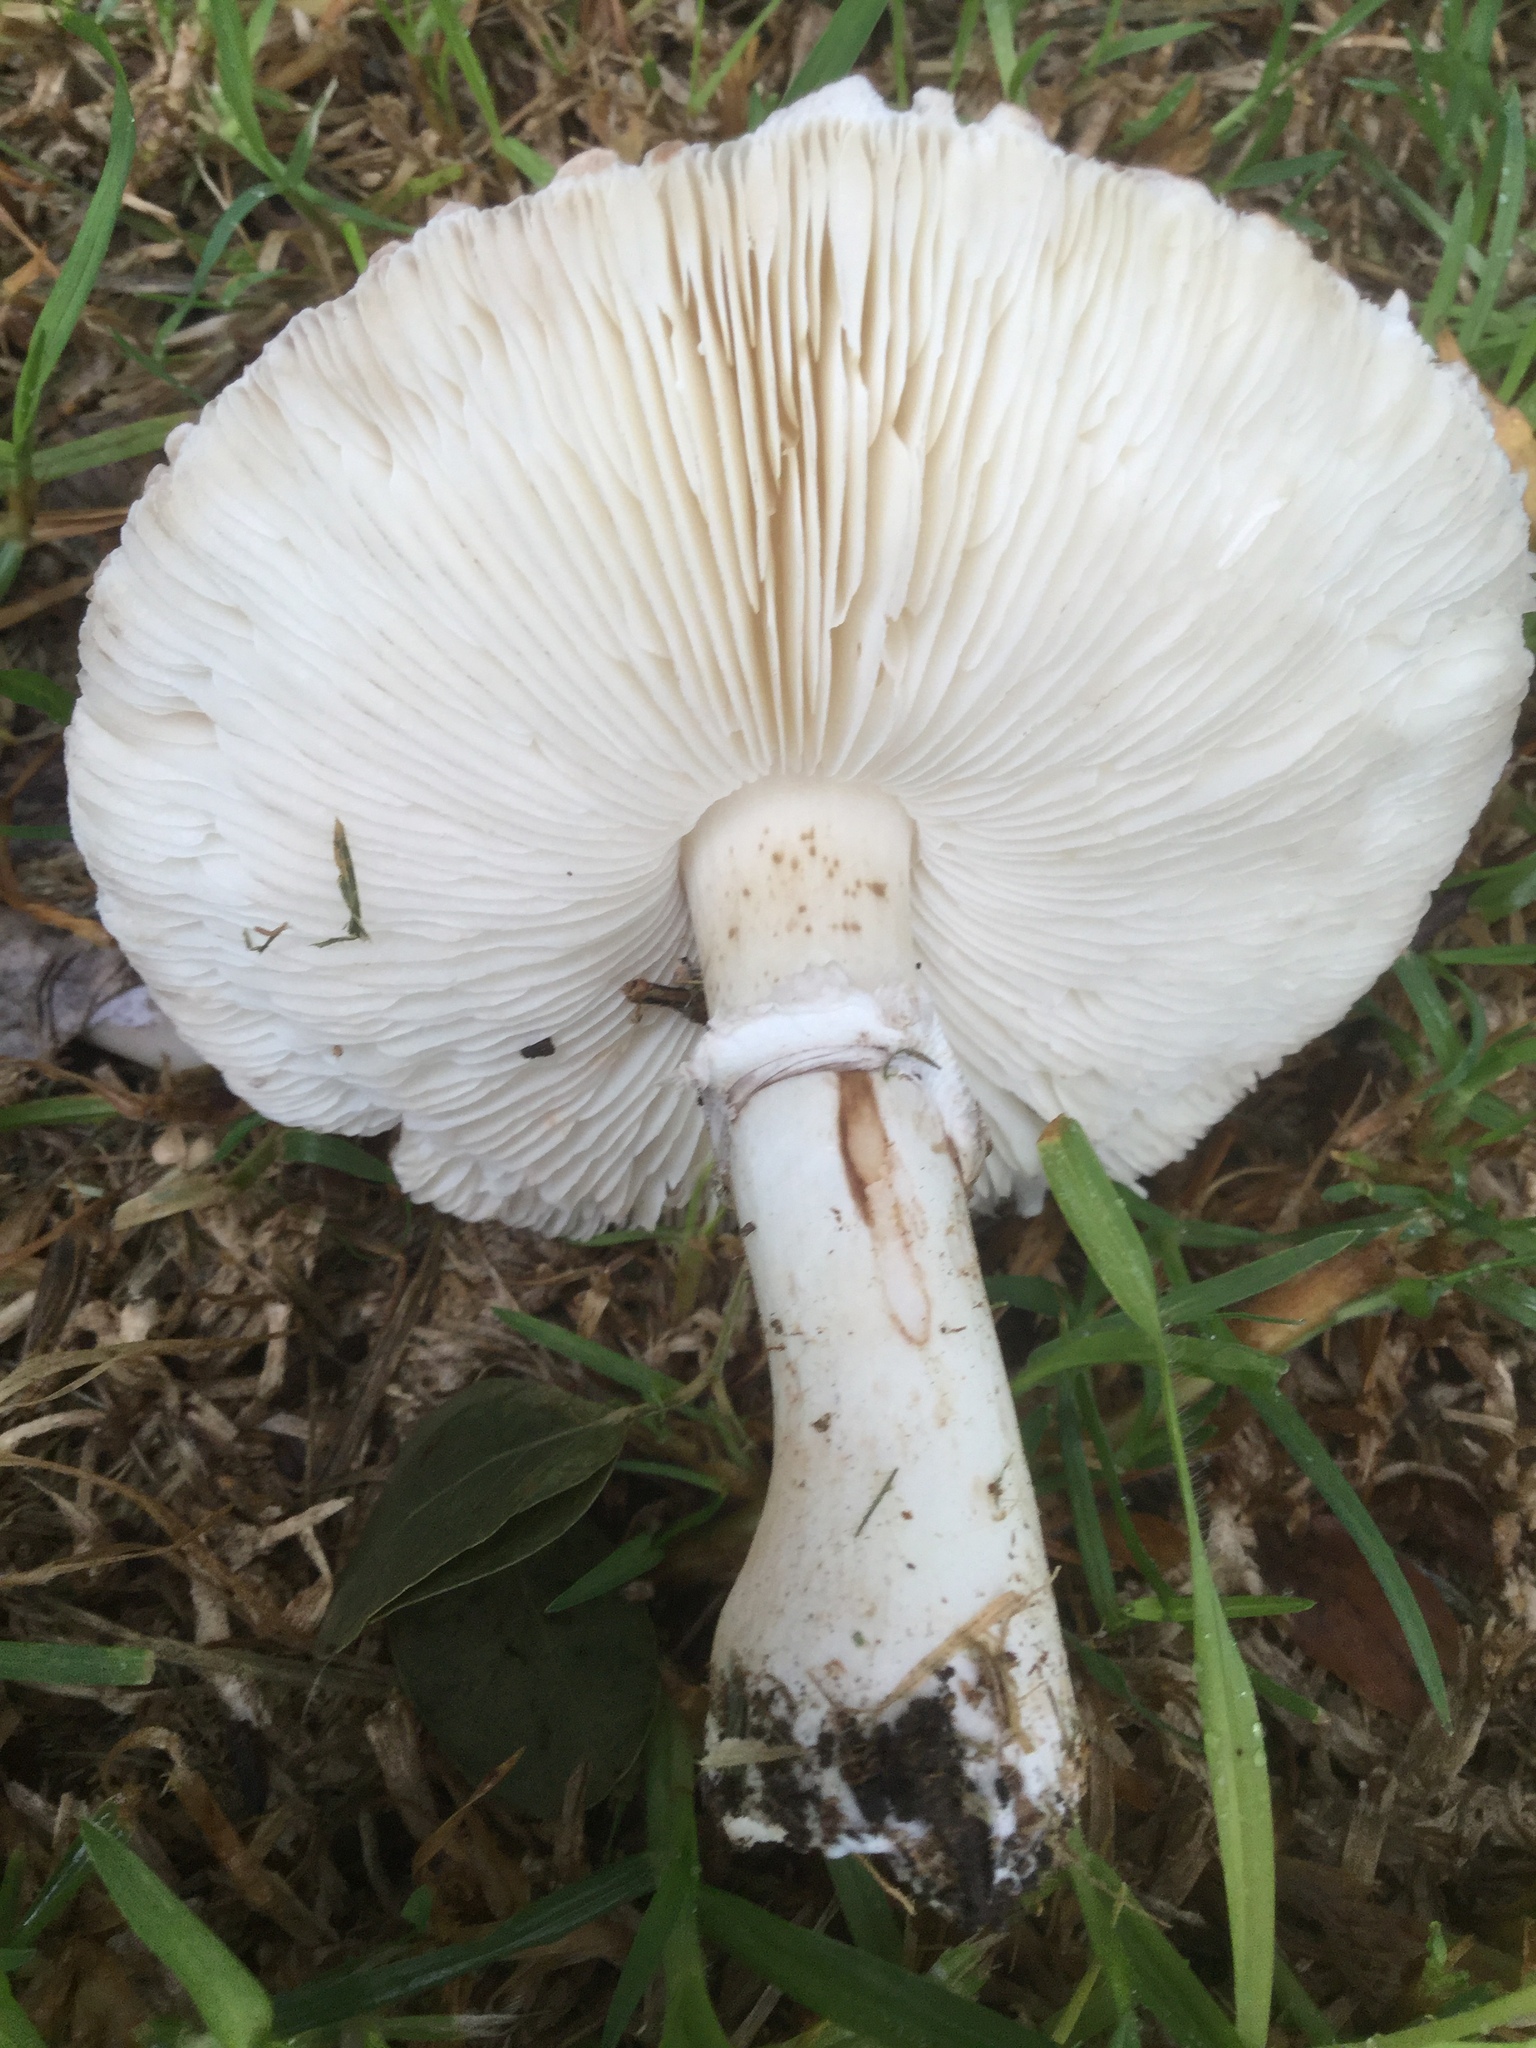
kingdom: Fungi
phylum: Basidiomycota
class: Agaricomycetes
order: Agaricales
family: Agaricaceae
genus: Leucoagaricus
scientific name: Leucoagaricus leucothites
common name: White dapperling
